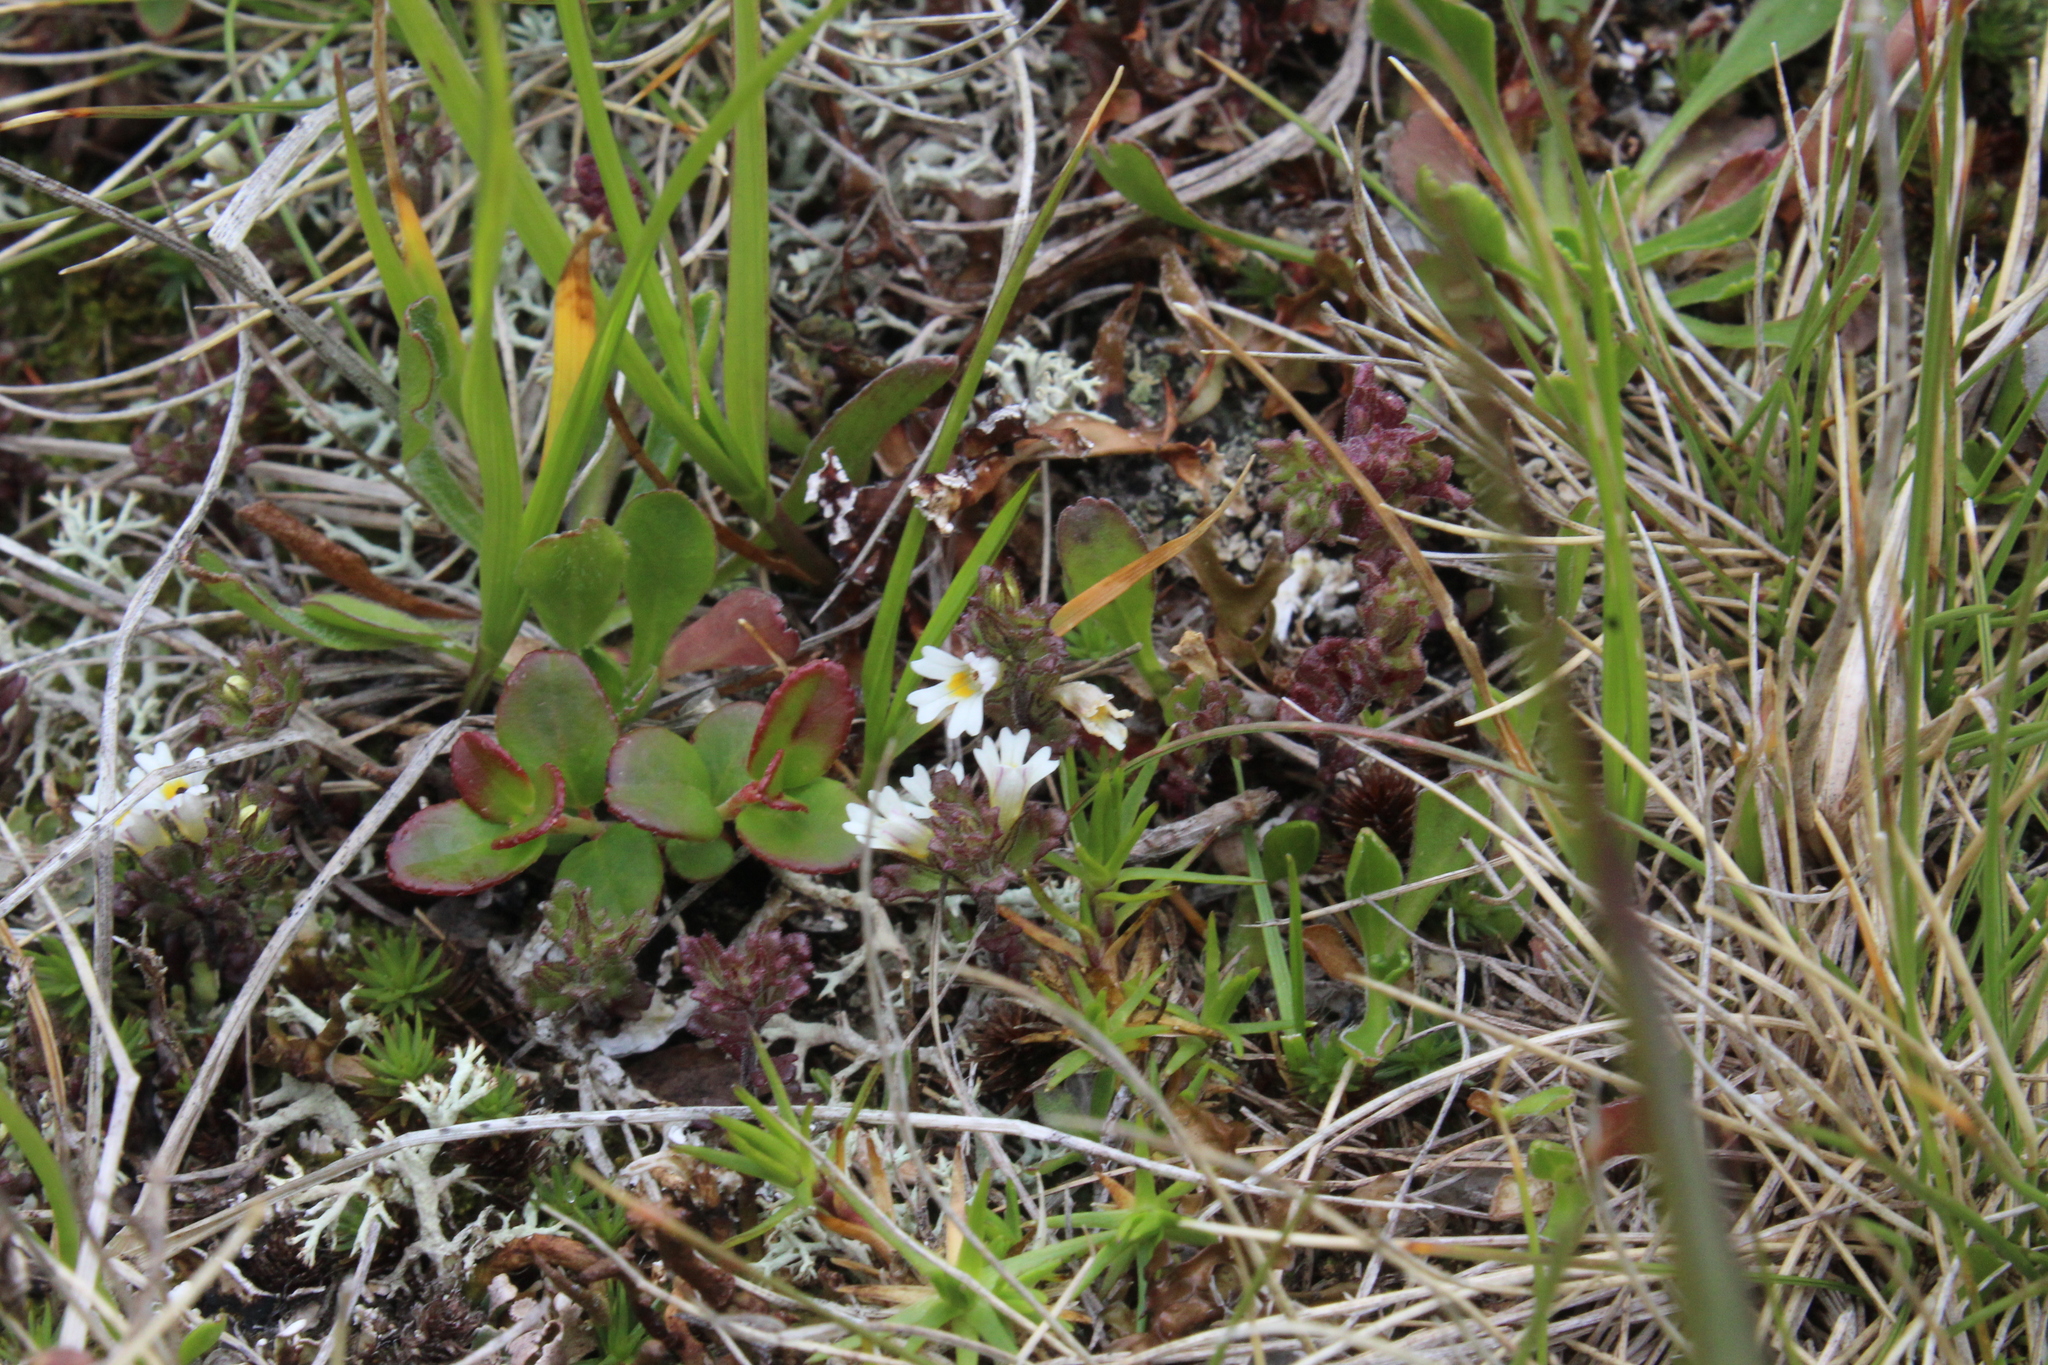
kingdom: Plantae
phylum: Tracheophyta
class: Magnoliopsida
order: Lamiales
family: Orobanchaceae
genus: Euphrasia
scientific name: Euphrasia ossica
